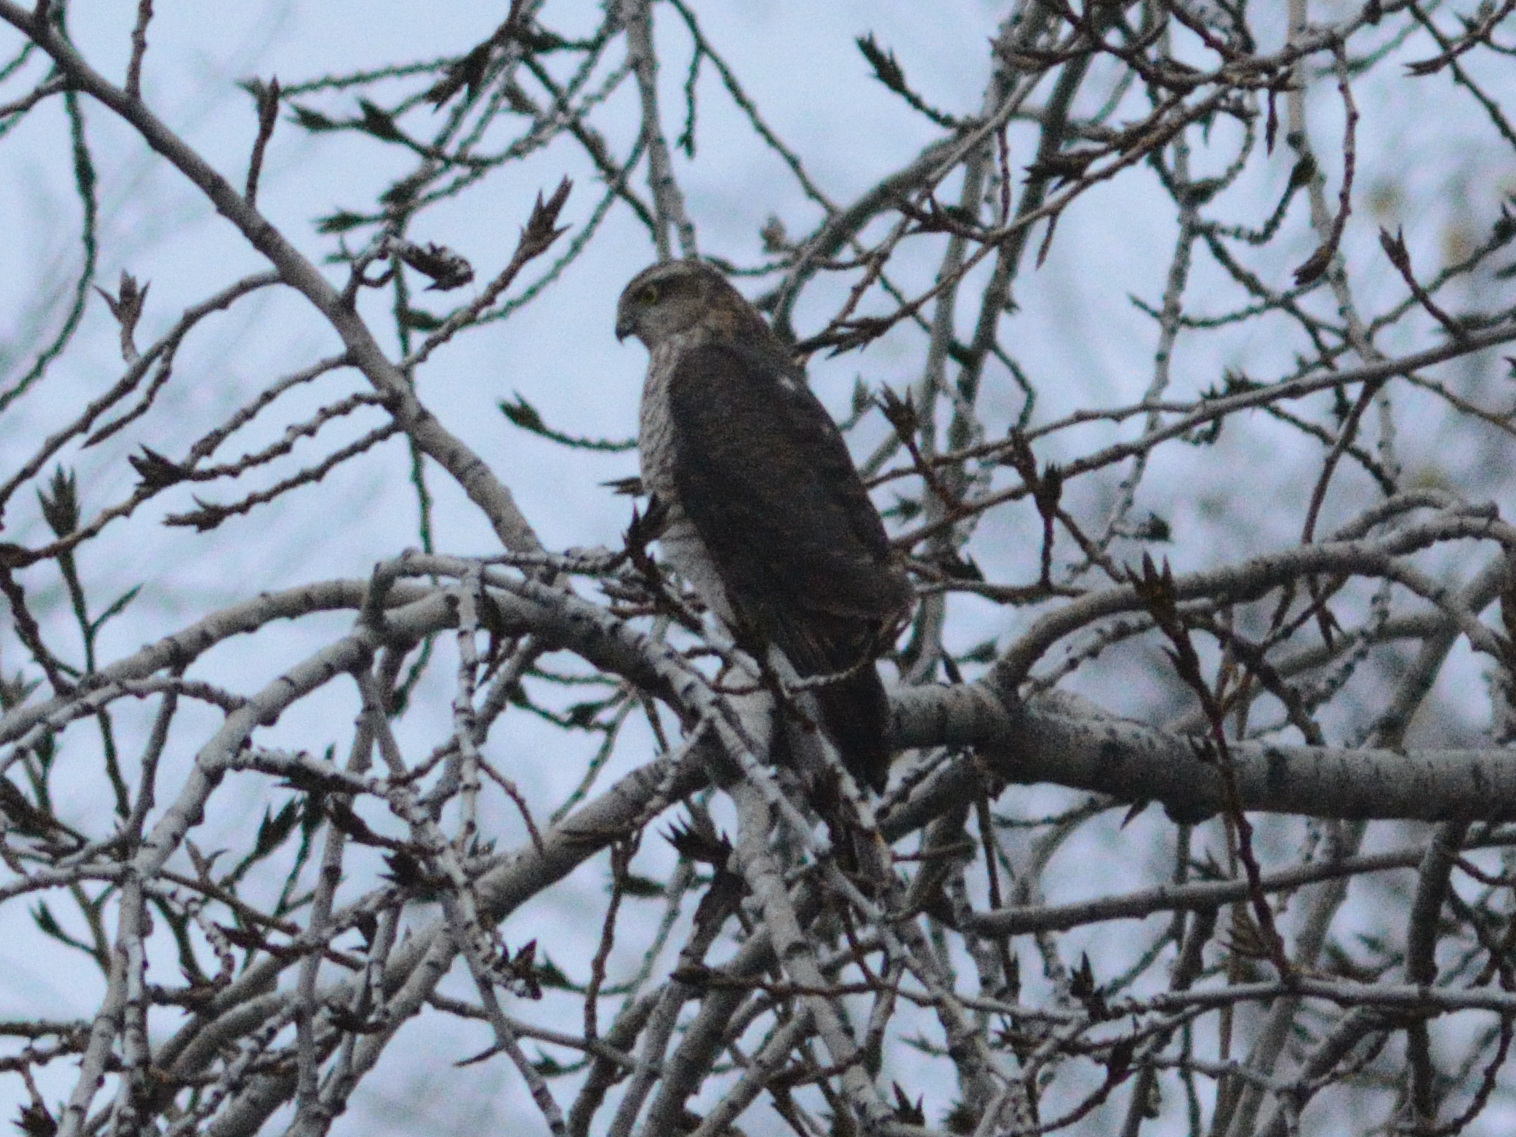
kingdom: Animalia
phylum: Chordata
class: Aves
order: Accipitriformes
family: Accipitridae
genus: Accipiter
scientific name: Accipiter nisus
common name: Eurasian sparrowhawk
